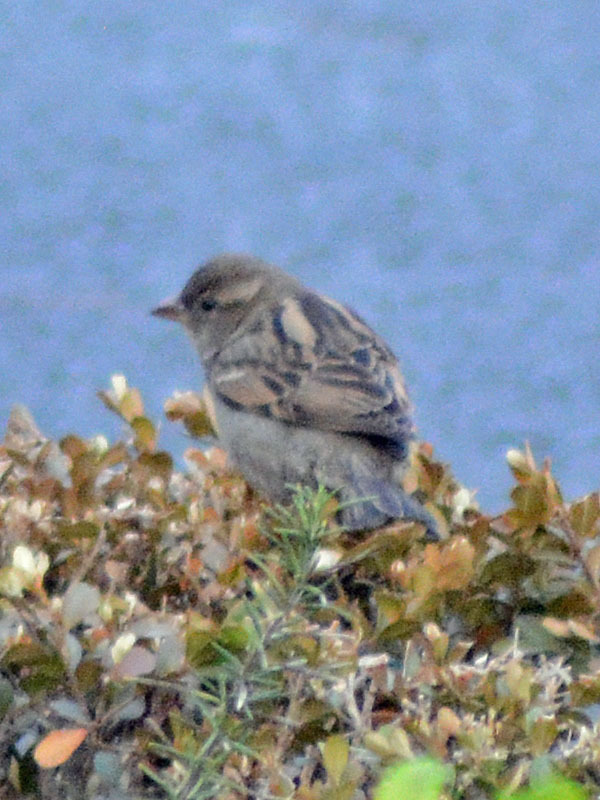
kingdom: Animalia
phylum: Chordata
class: Aves
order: Passeriformes
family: Passeridae
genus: Passer
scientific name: Passer domesticus
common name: House sparrow
